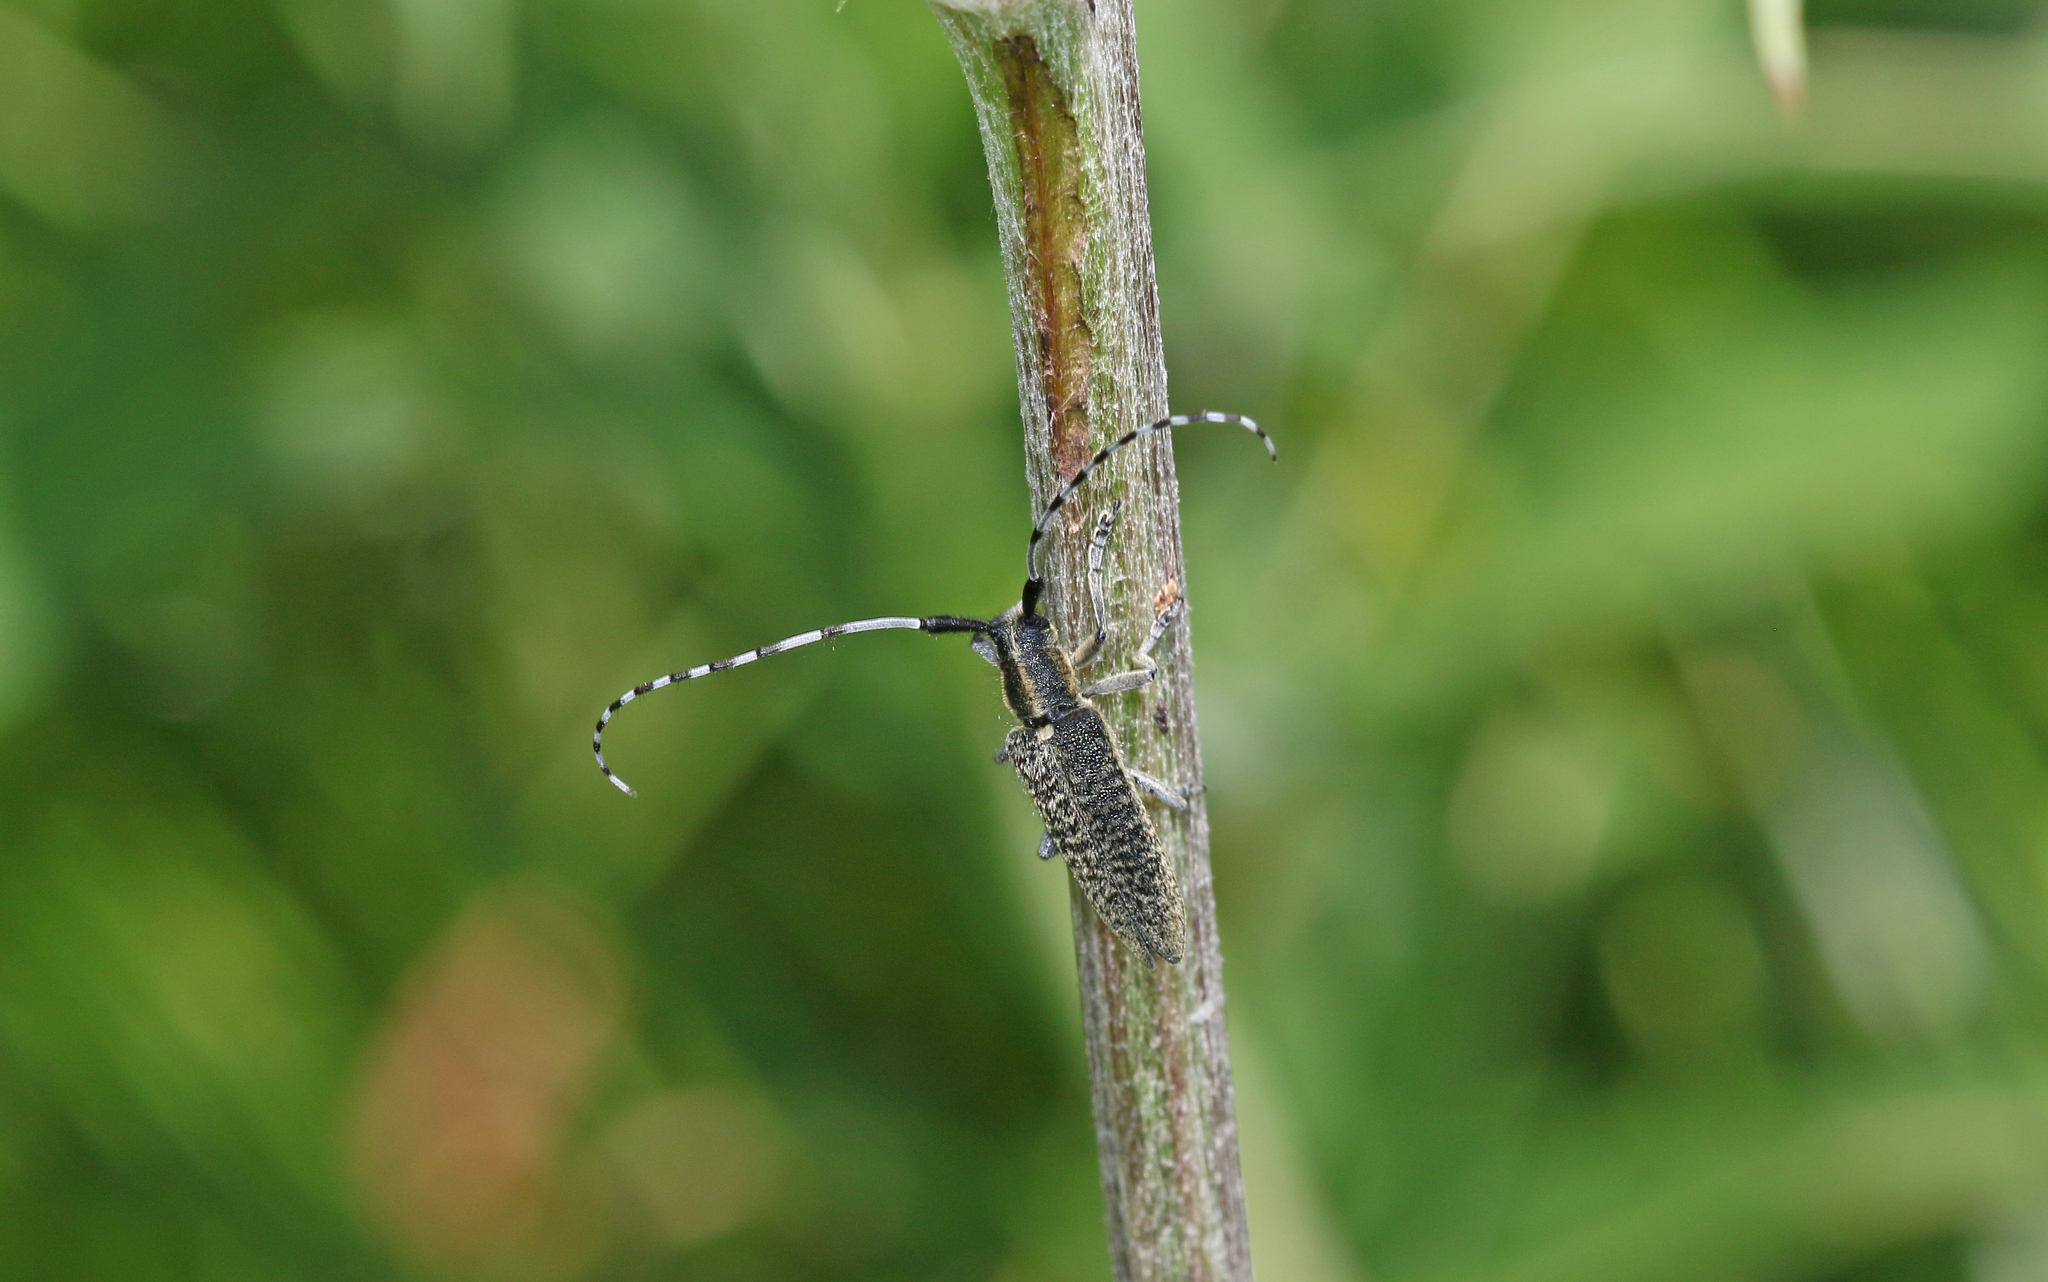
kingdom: Animalia
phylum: Arthropoda
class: Insecta
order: Coleoptera
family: Cerambycidae
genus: Agapanthia
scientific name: Agapanthia villosoviridescens
